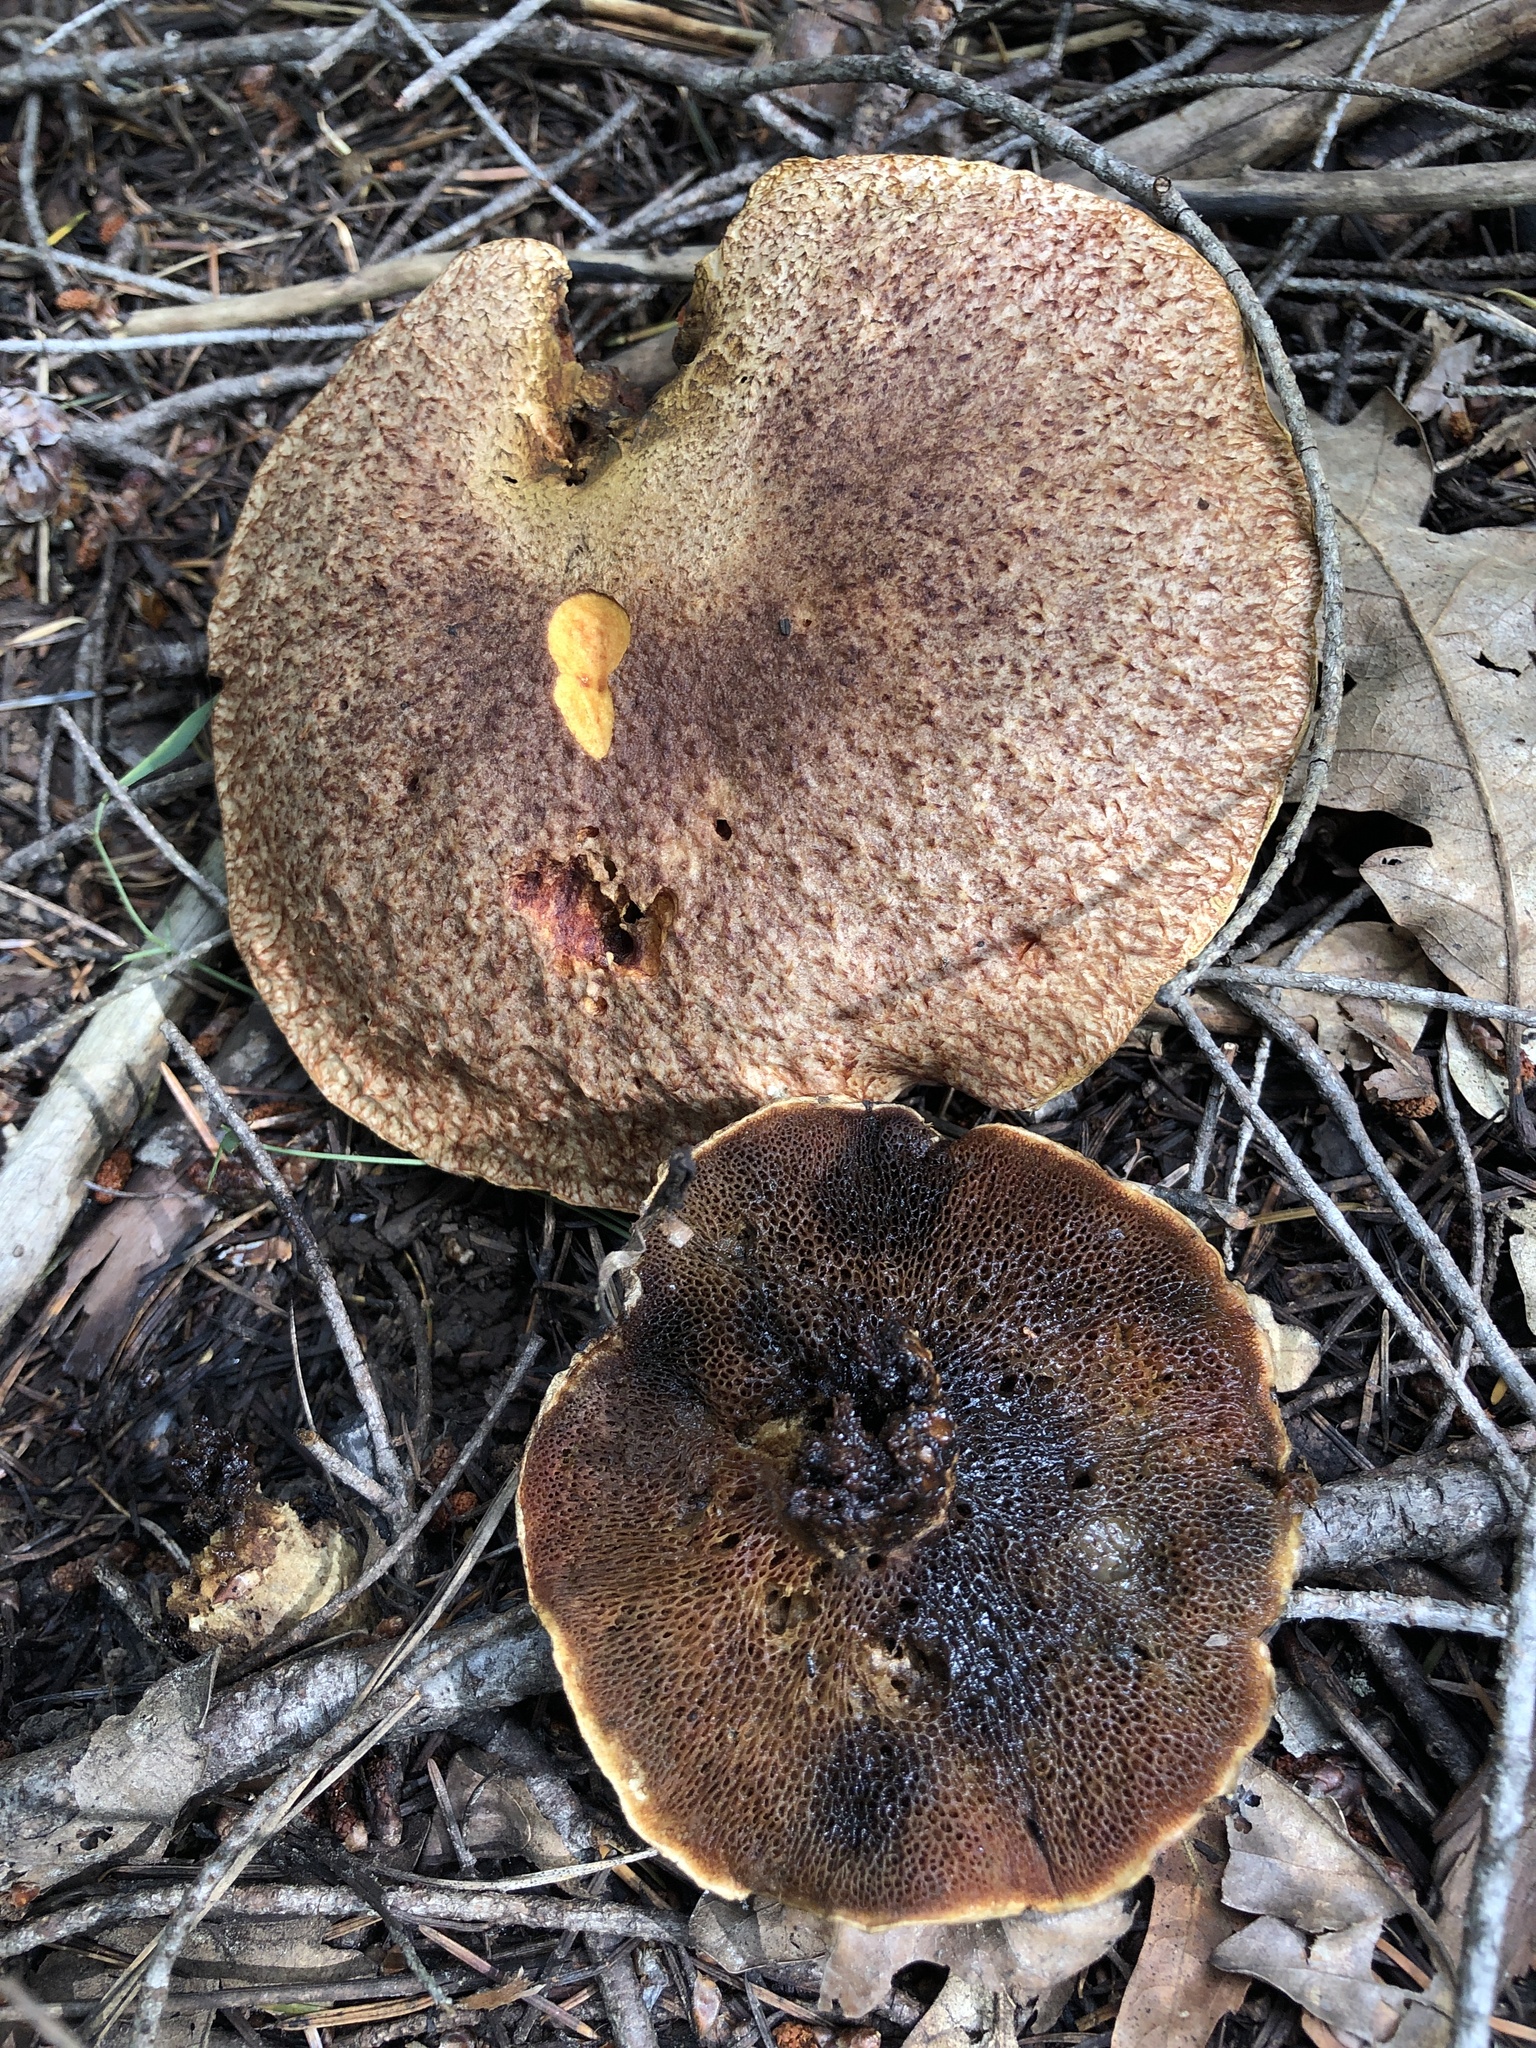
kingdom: Fungi
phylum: Basidiomycota
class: Agaricomycetes
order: Boletales
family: Suillaceae
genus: Suillus
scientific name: Suillus lakei
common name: Western painted suillus
